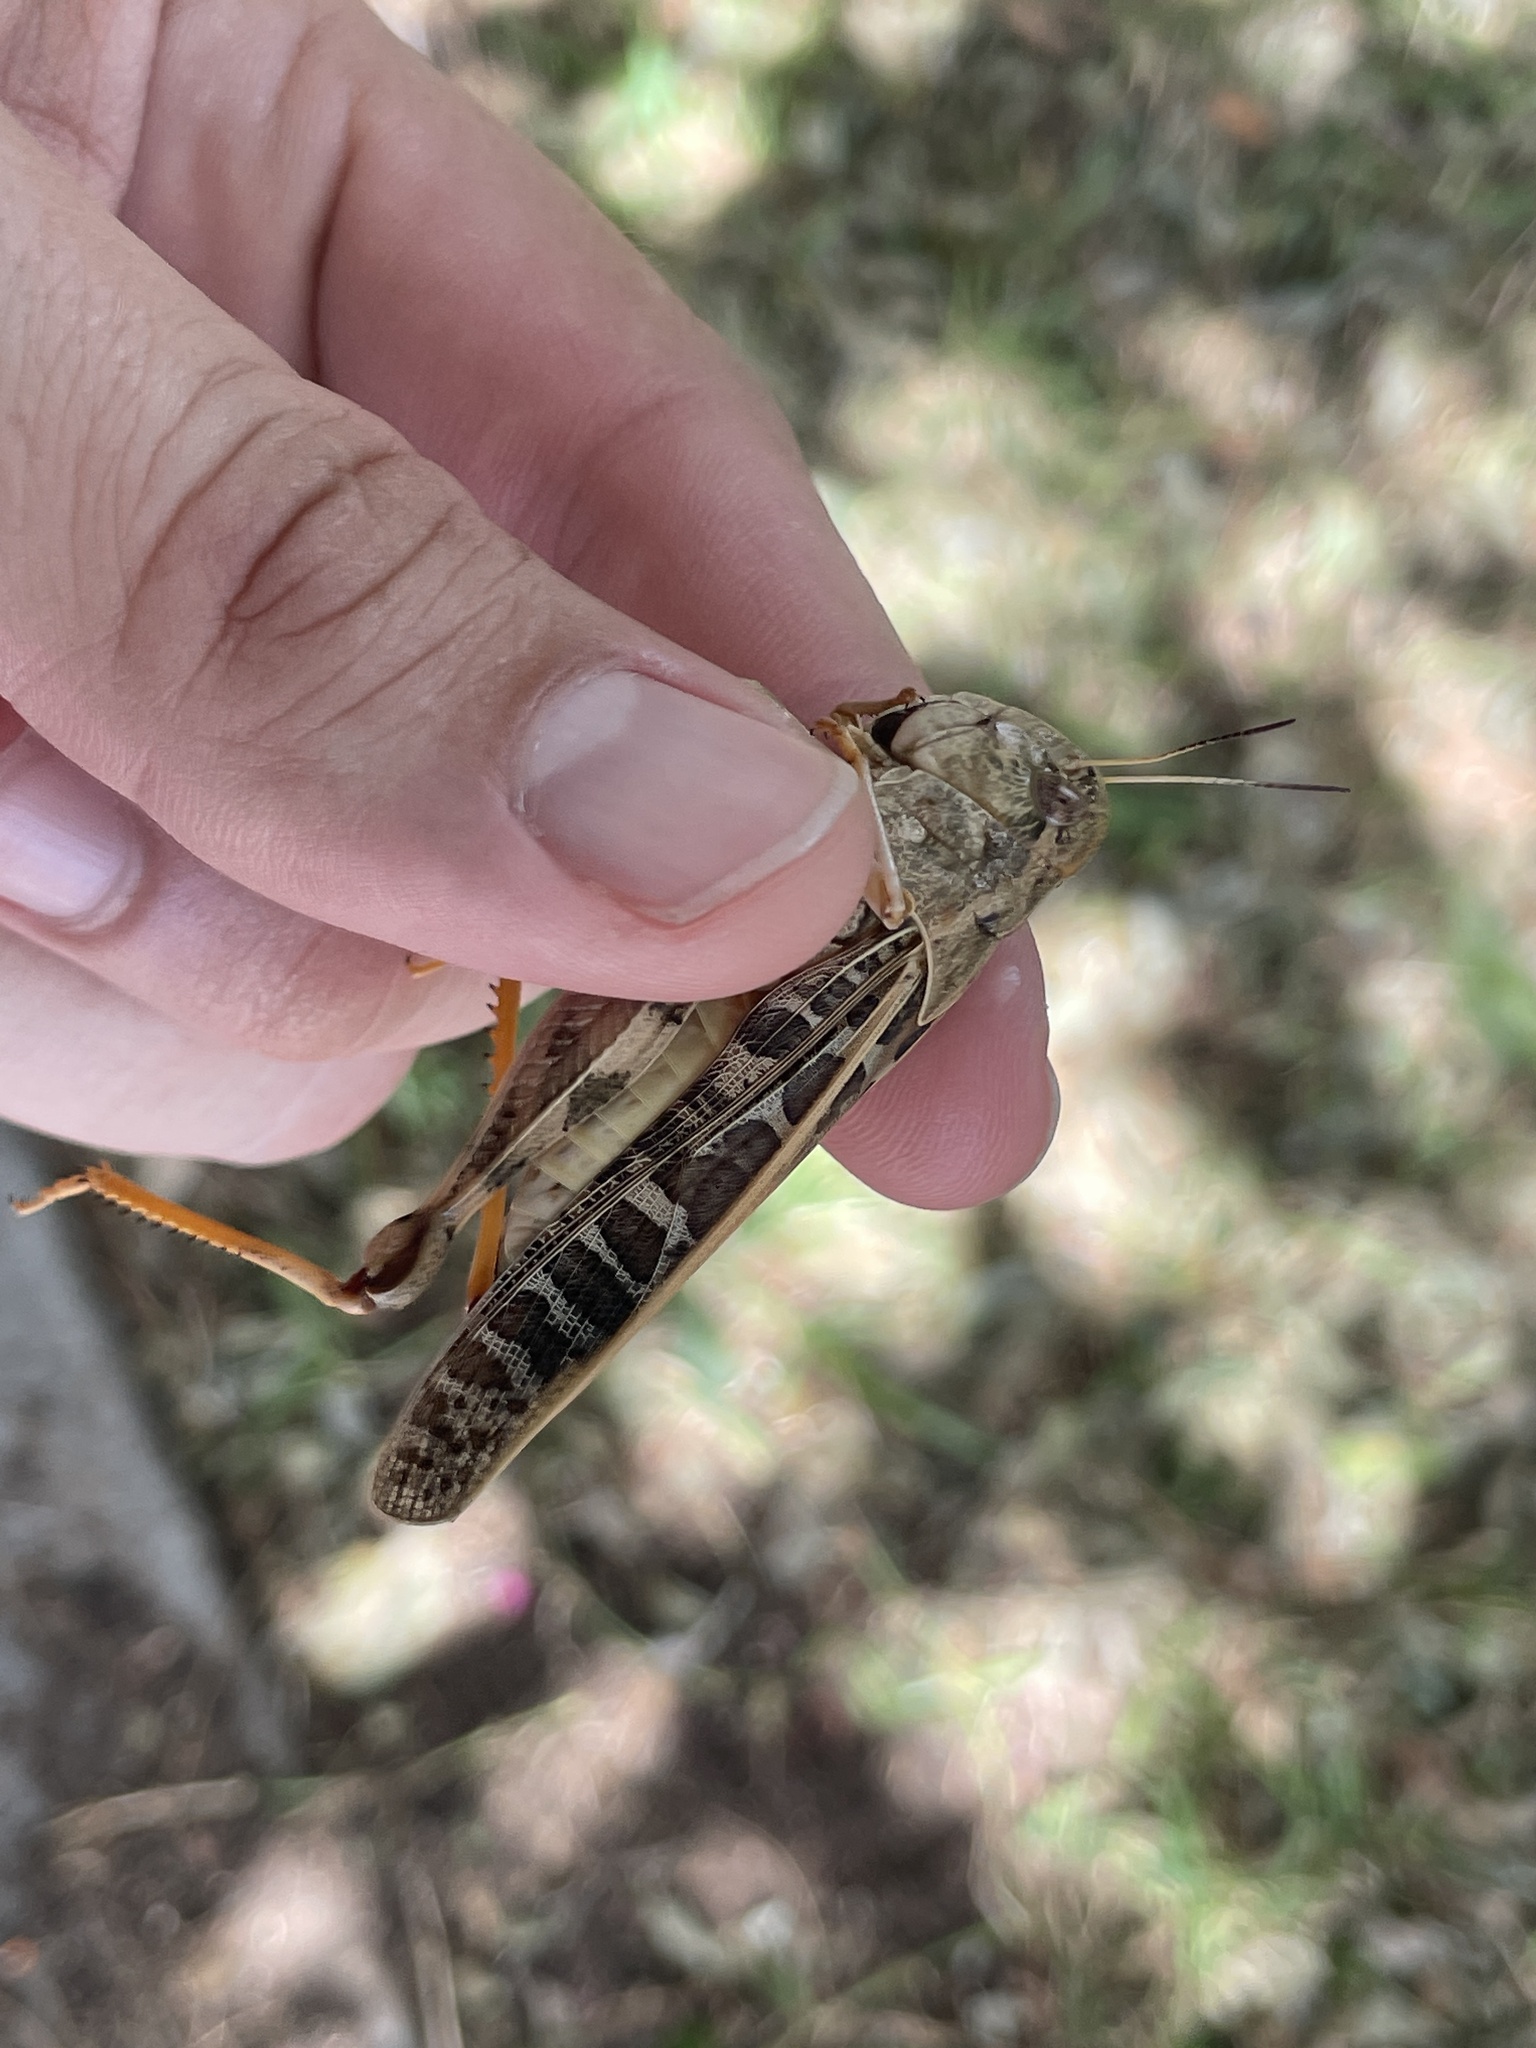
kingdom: Animalia
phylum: Arthropoda
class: Insecta
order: Orthoptera
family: Acrididae
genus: Hippiscus
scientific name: Hippiscus ocelote
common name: Wrinkled grasshopper
